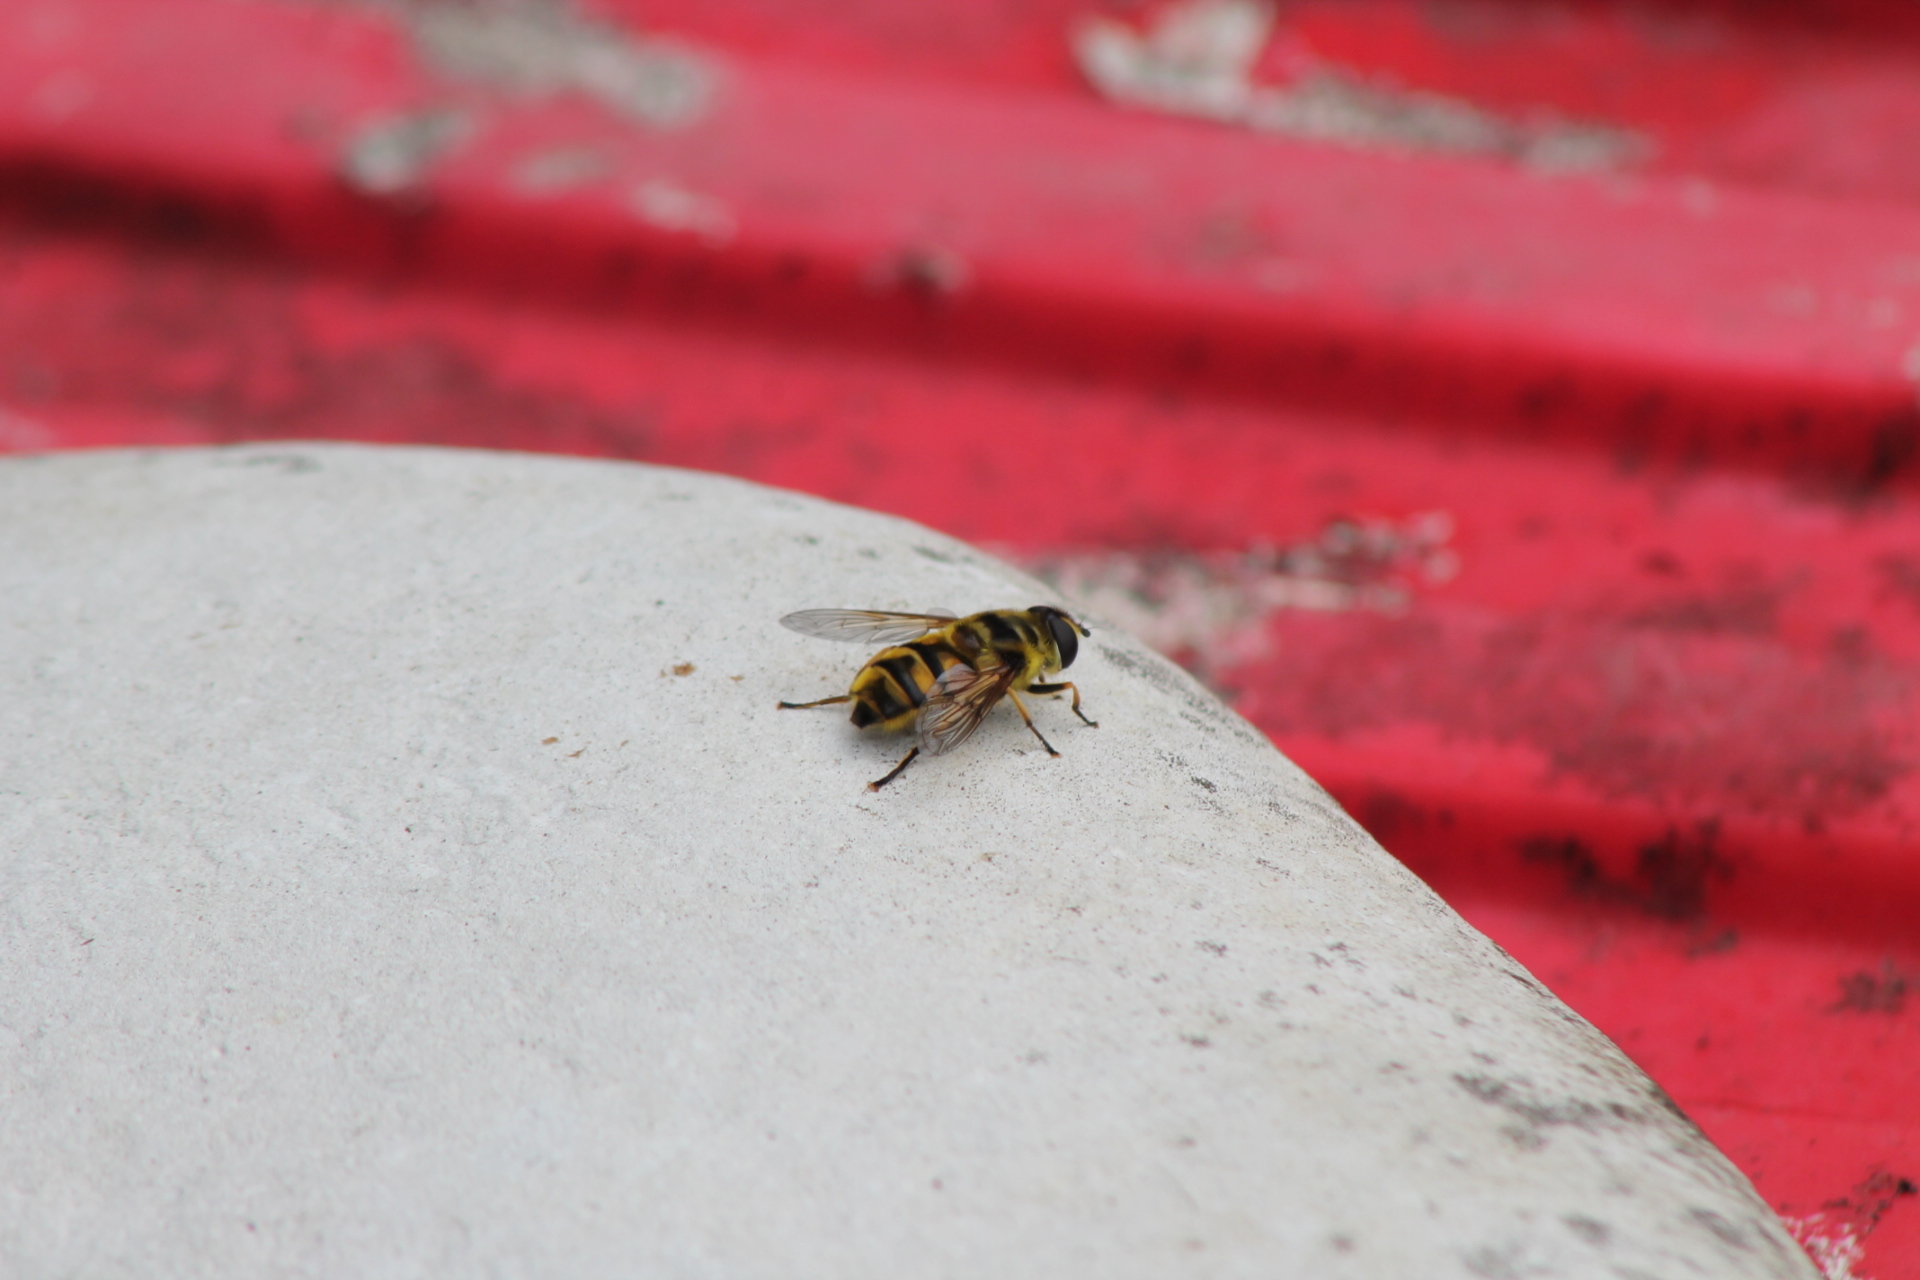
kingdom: Animalia
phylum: Arthropoda
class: Insecta
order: Diptera
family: Syrphidae
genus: Myathropa
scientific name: Myathropa florea
